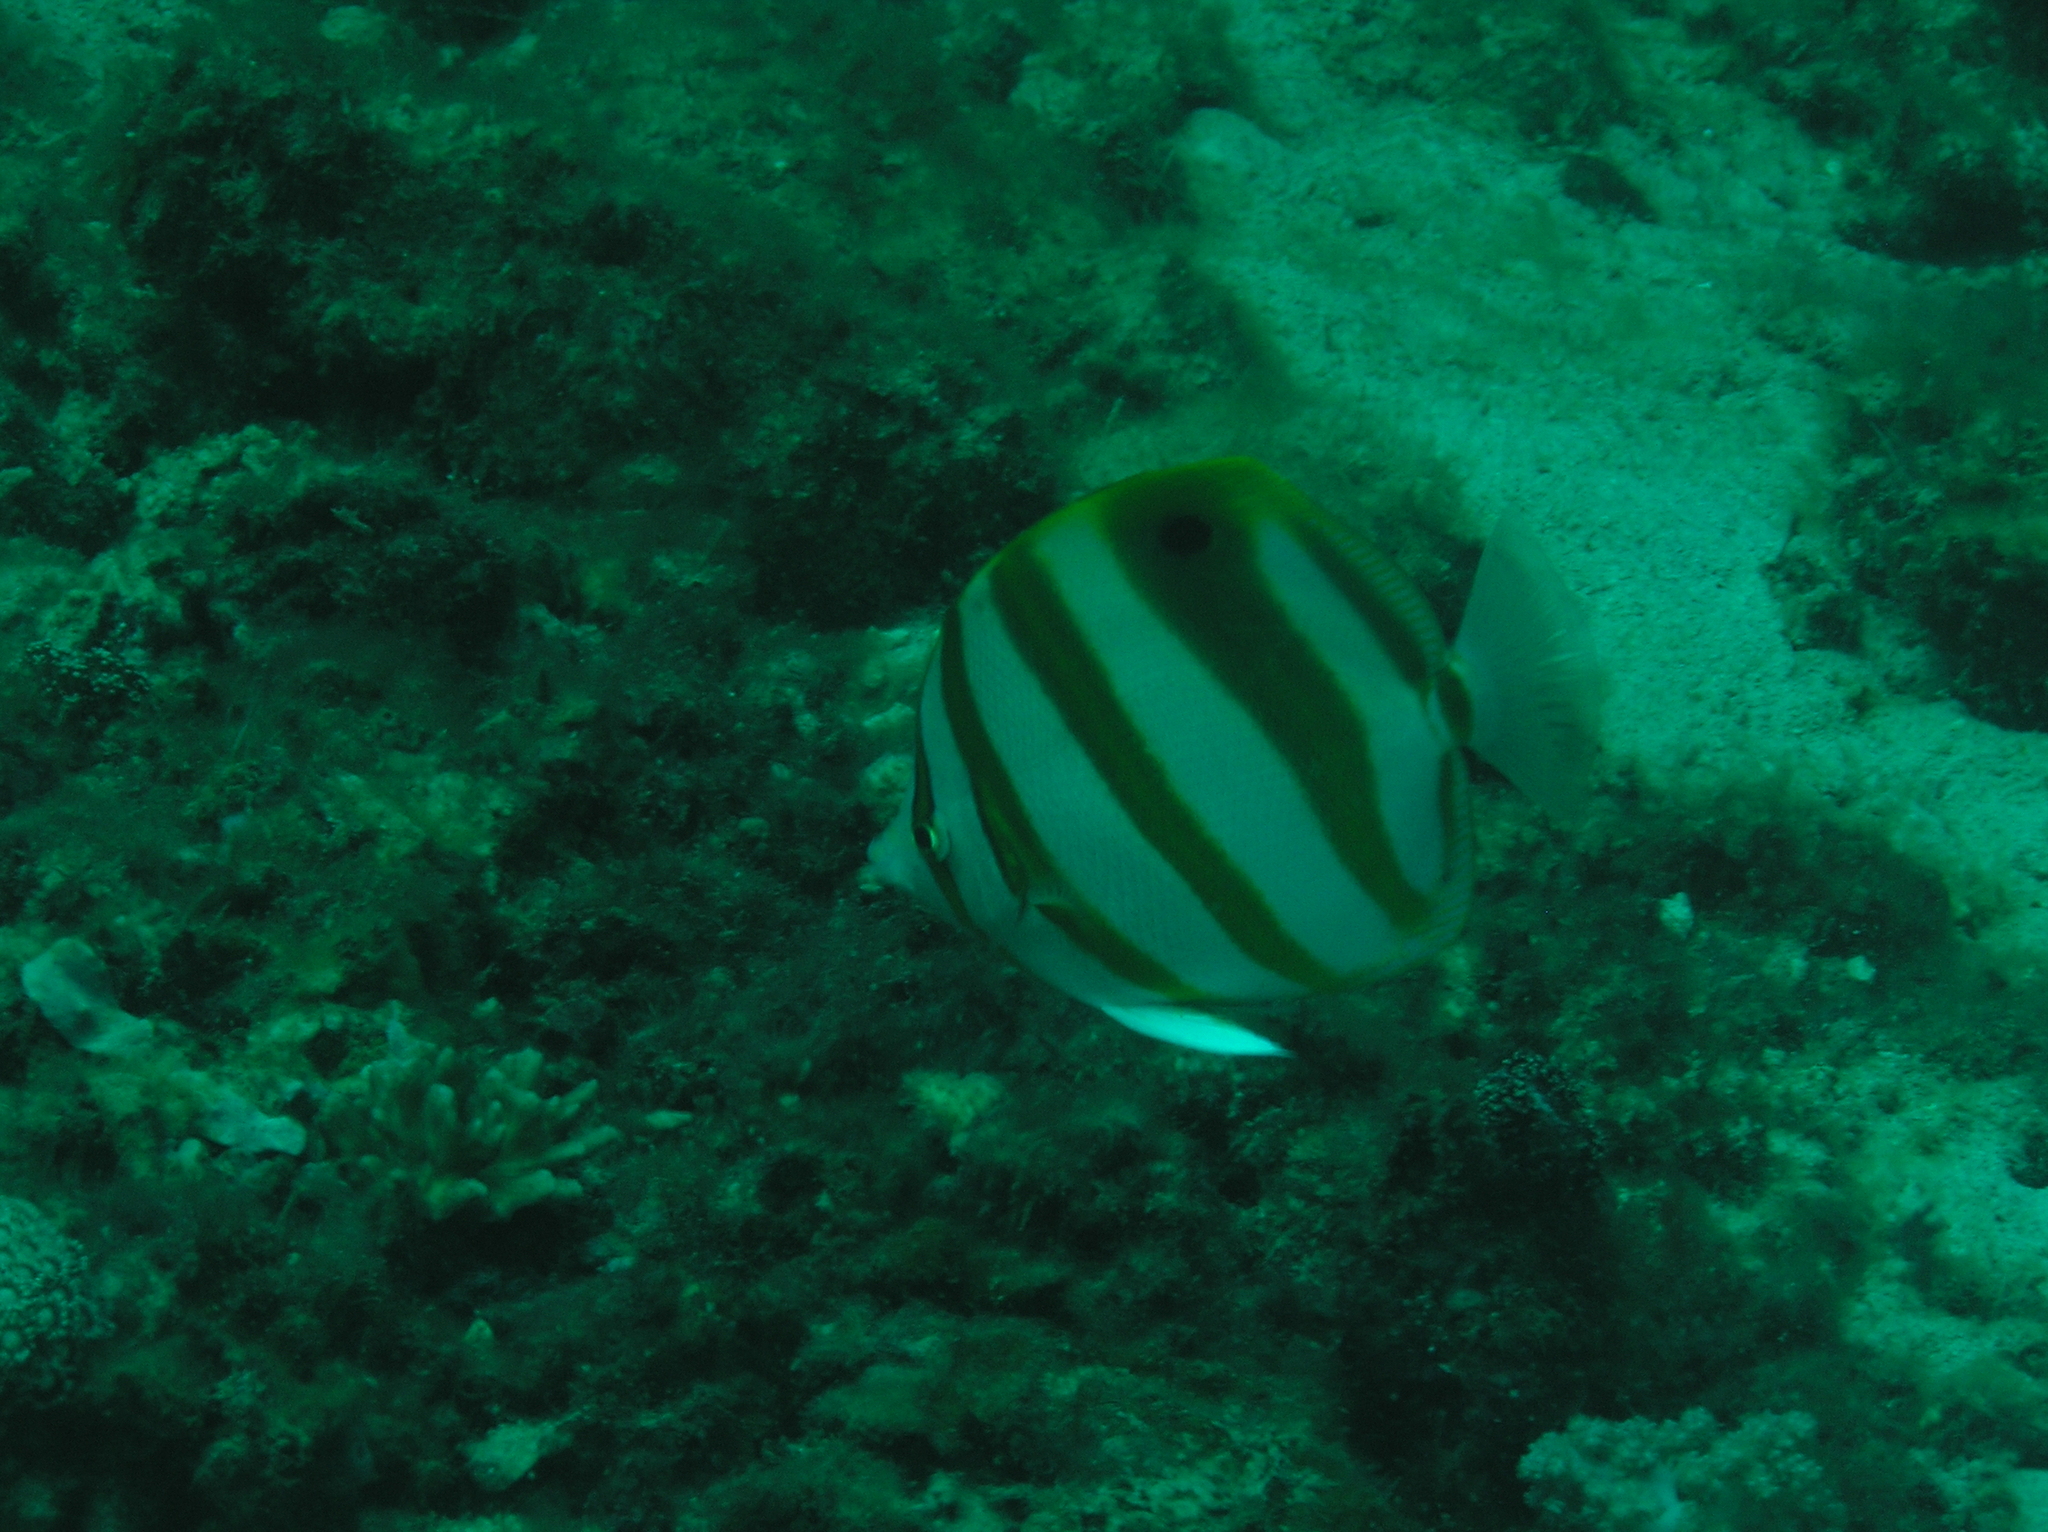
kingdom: Animalia
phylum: Chordata
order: Perciformes
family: Chaetodontidae
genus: Parachaetodon
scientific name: Parachaetodon ocellatus
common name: Ocellate coralfish
